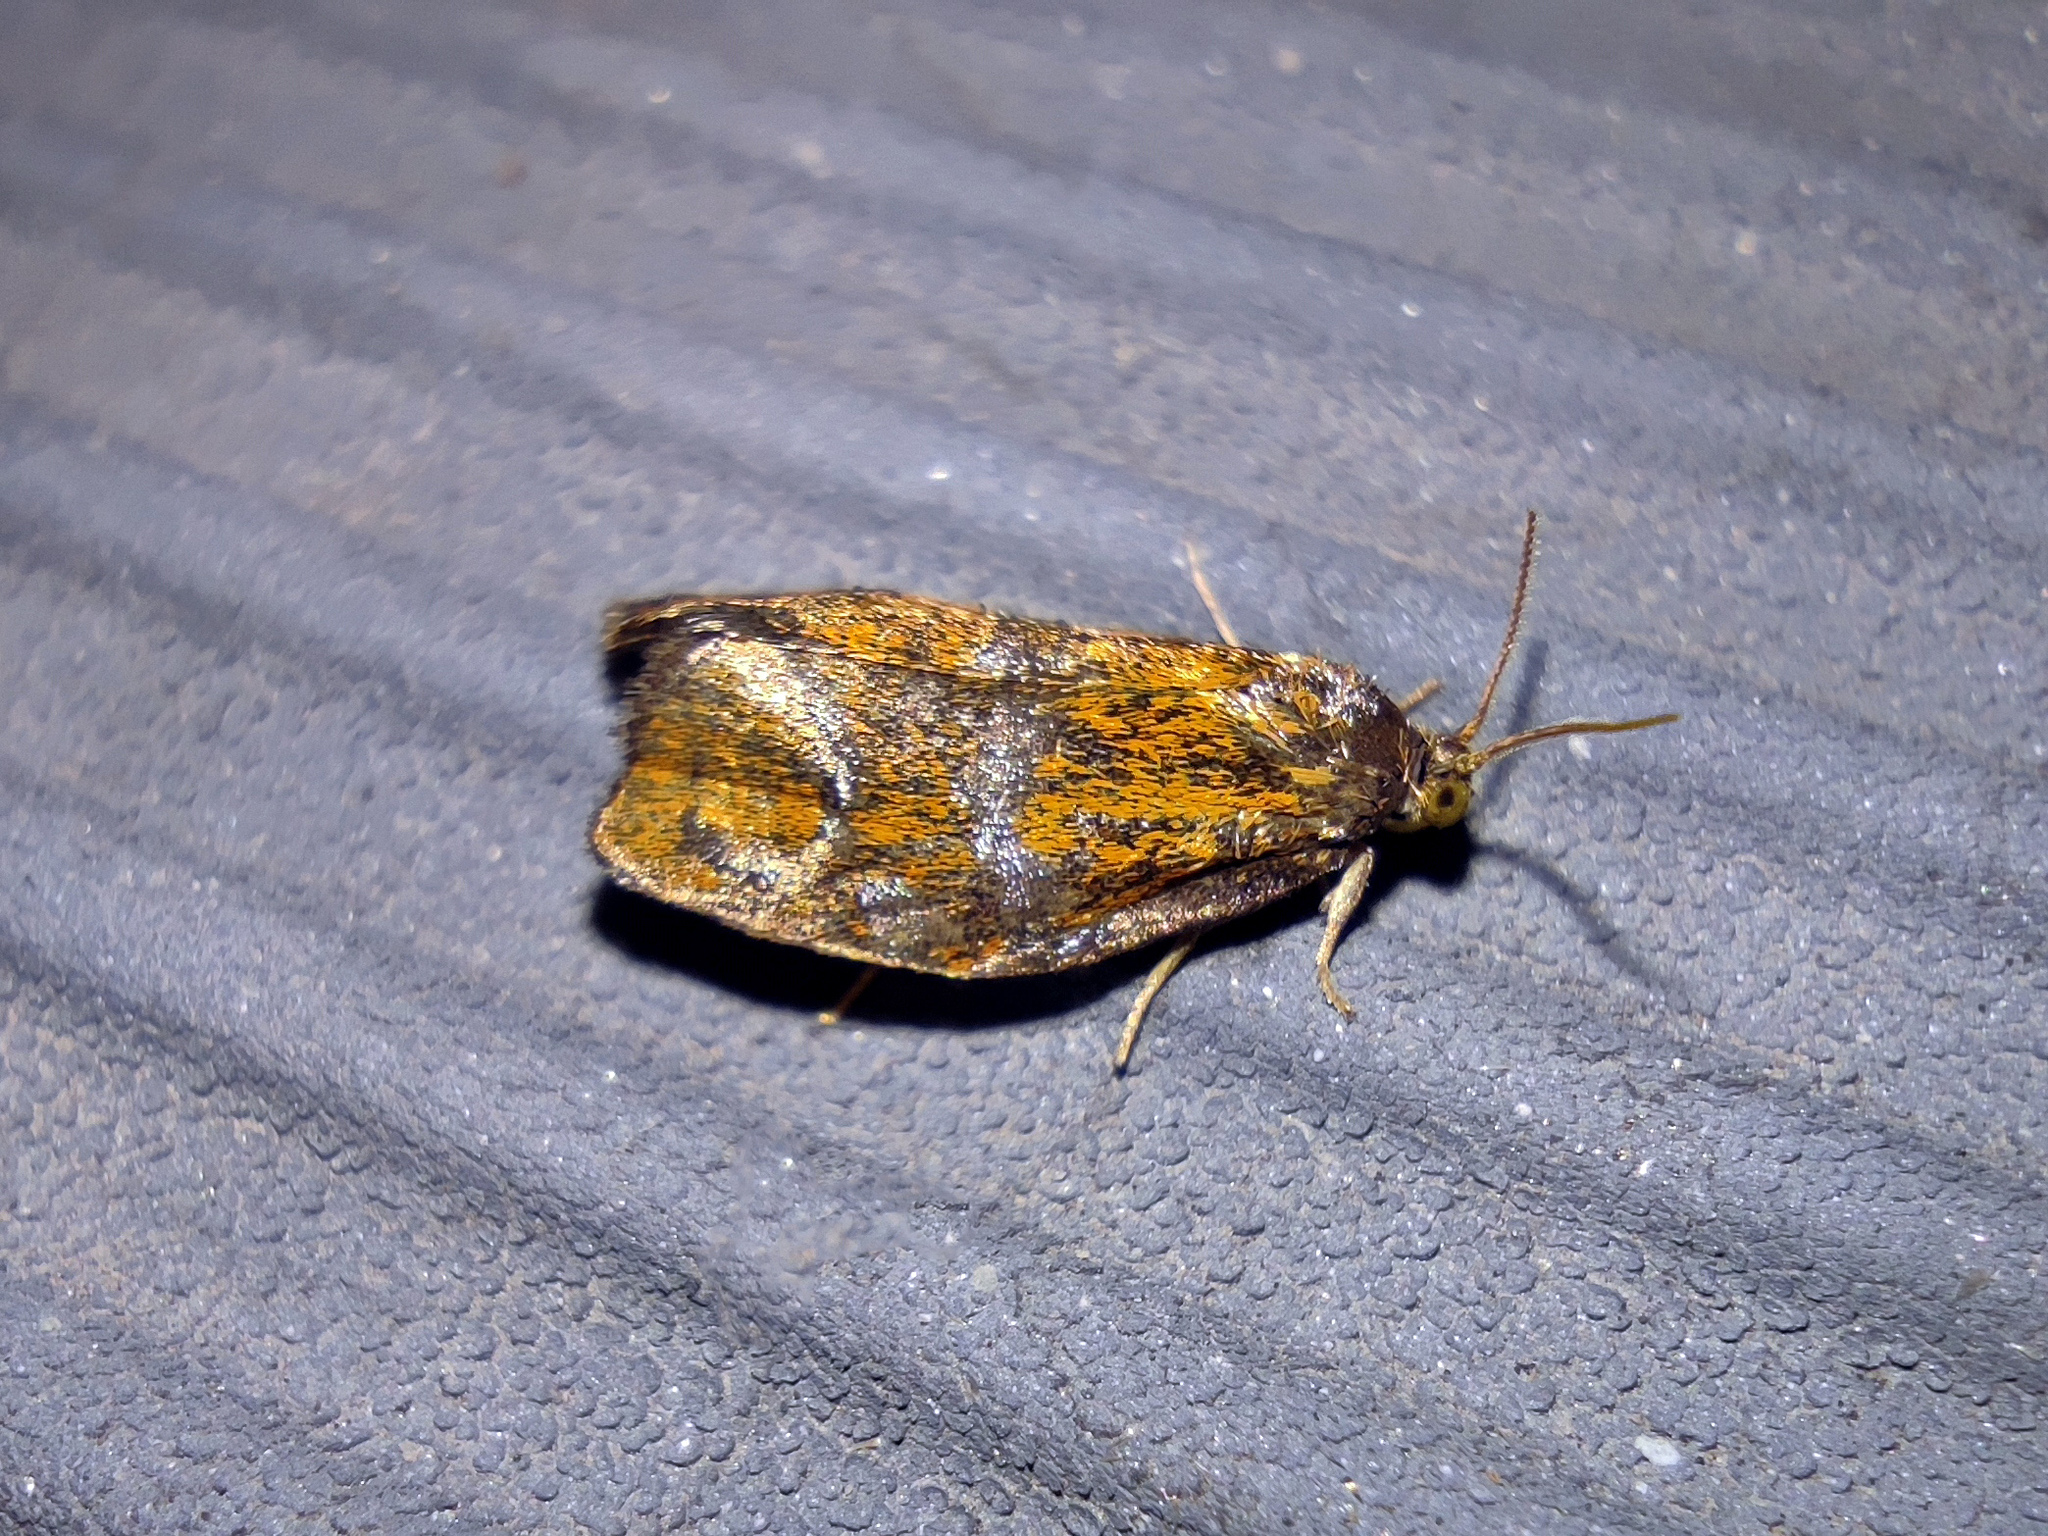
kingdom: Animalia
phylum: Arthropoda
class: Insecta
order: Lepidoptera
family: Tortricidae
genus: Ptycholoma
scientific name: Ptycholoma lecheana
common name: Leches twist moth
